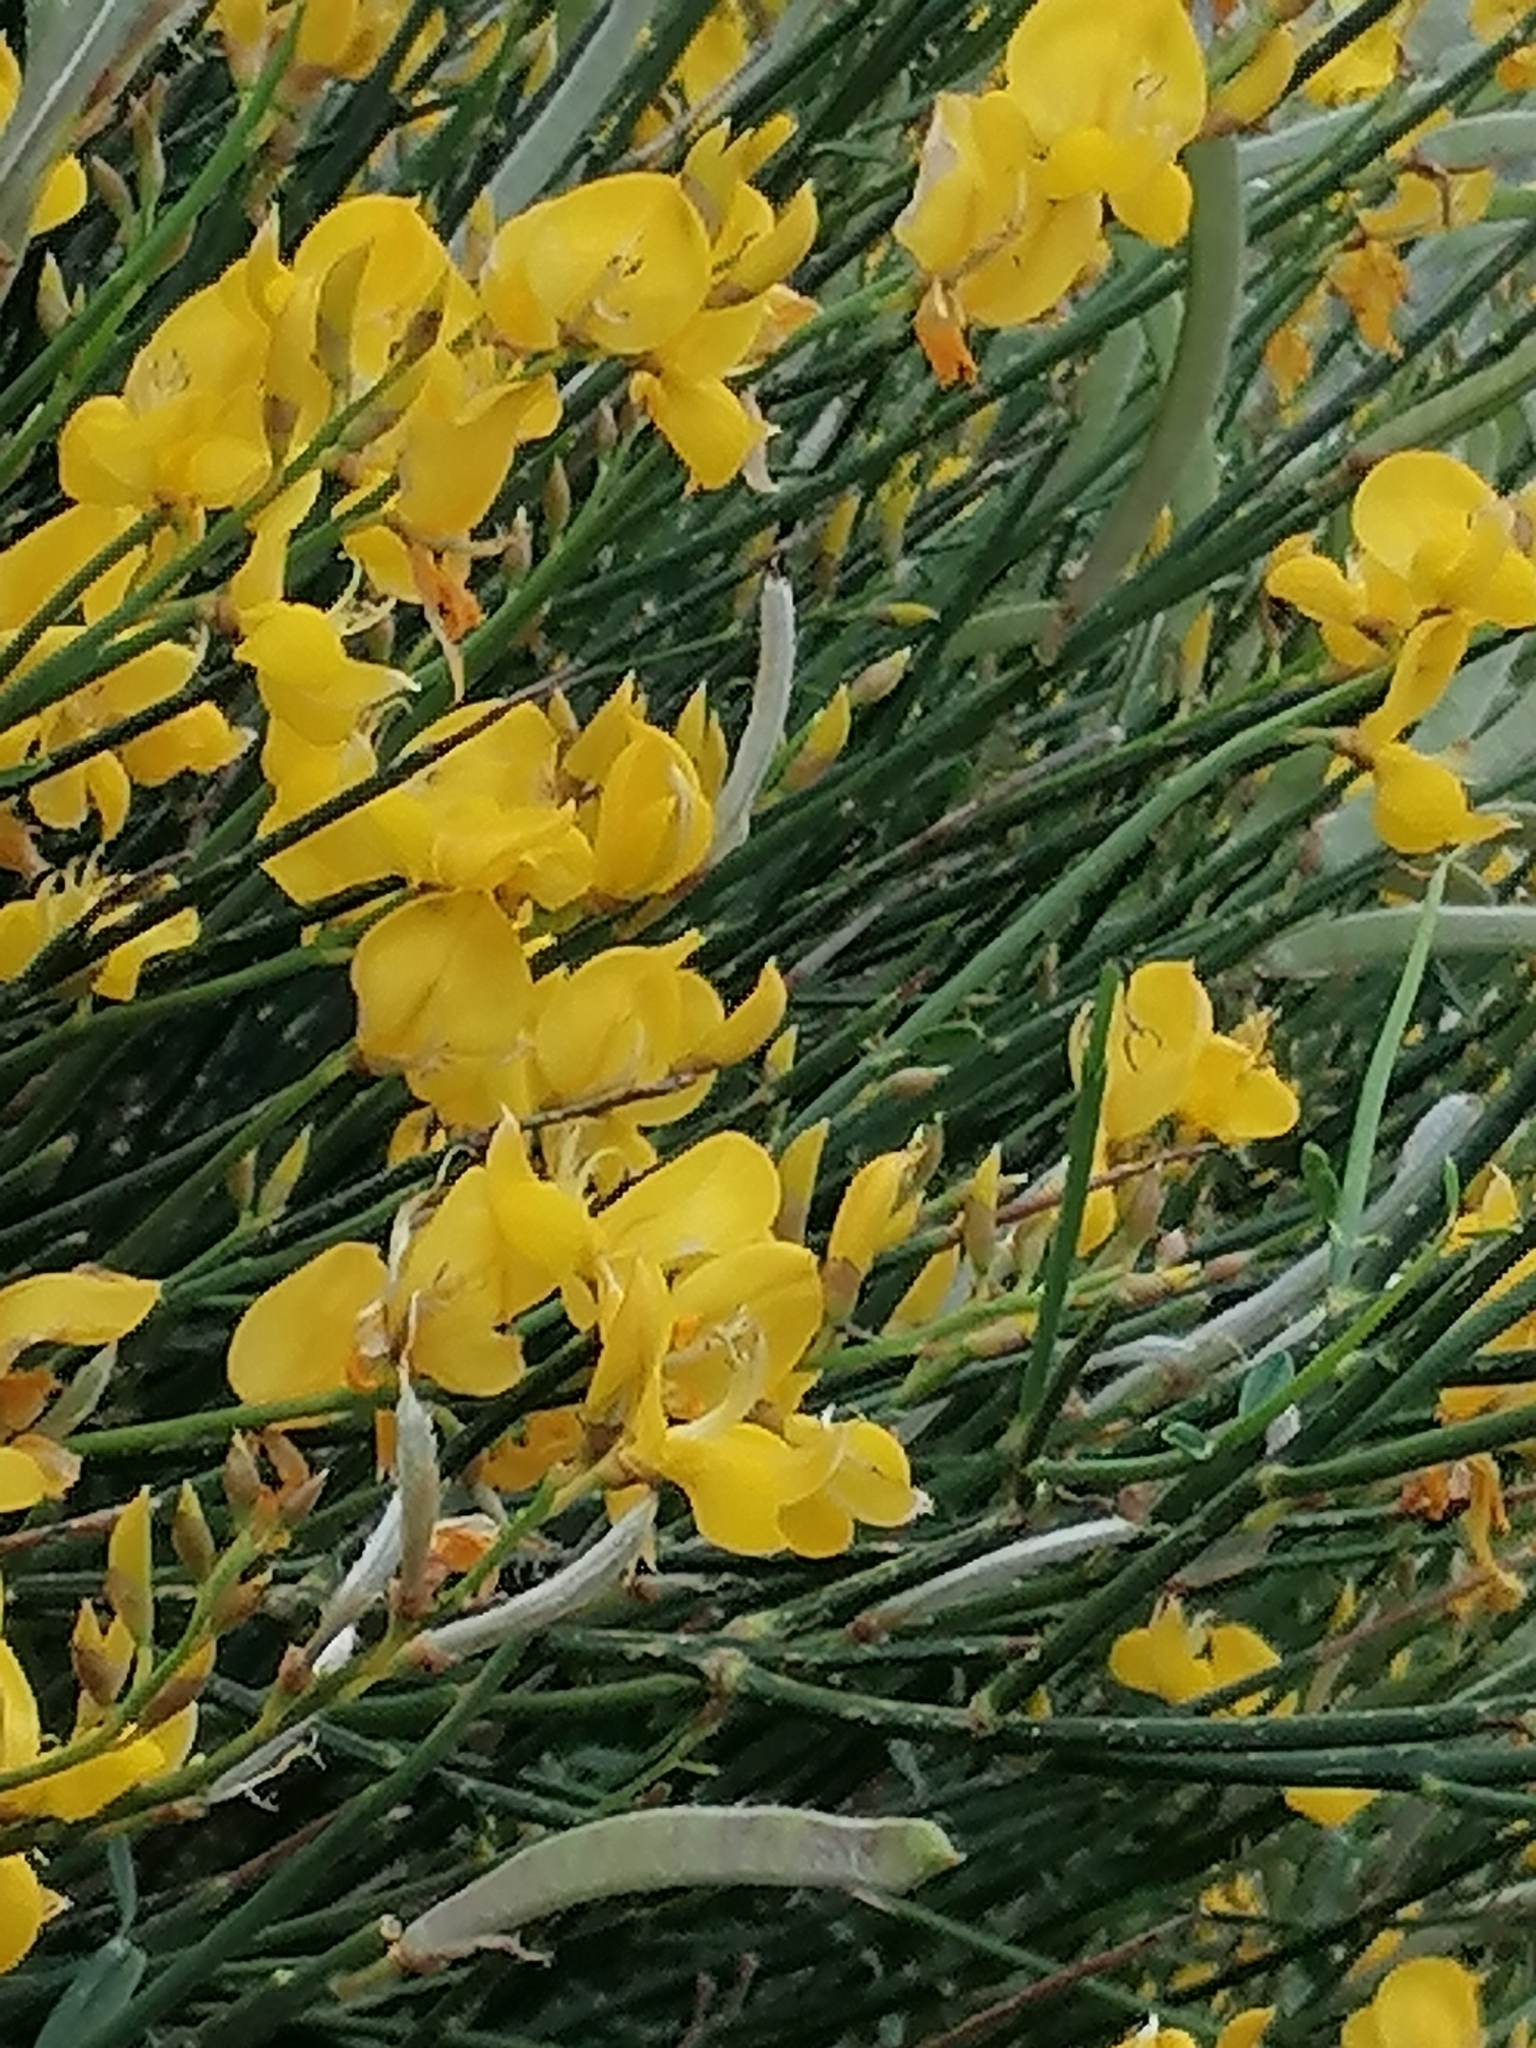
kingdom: Plantae
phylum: Tracheophyta
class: Magnoliopsida
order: Fabales
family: Fabaceae
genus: Spartium
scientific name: Spartium junceum
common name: Spanish broom
